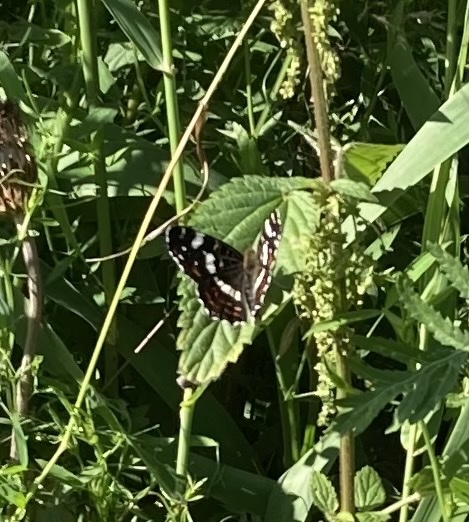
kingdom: Animalia
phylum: Arthropoda
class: Insecta
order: Lepidoptera
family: Nymphalidae
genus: Araschnia
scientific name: Araschnia levana
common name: Map butterfly
